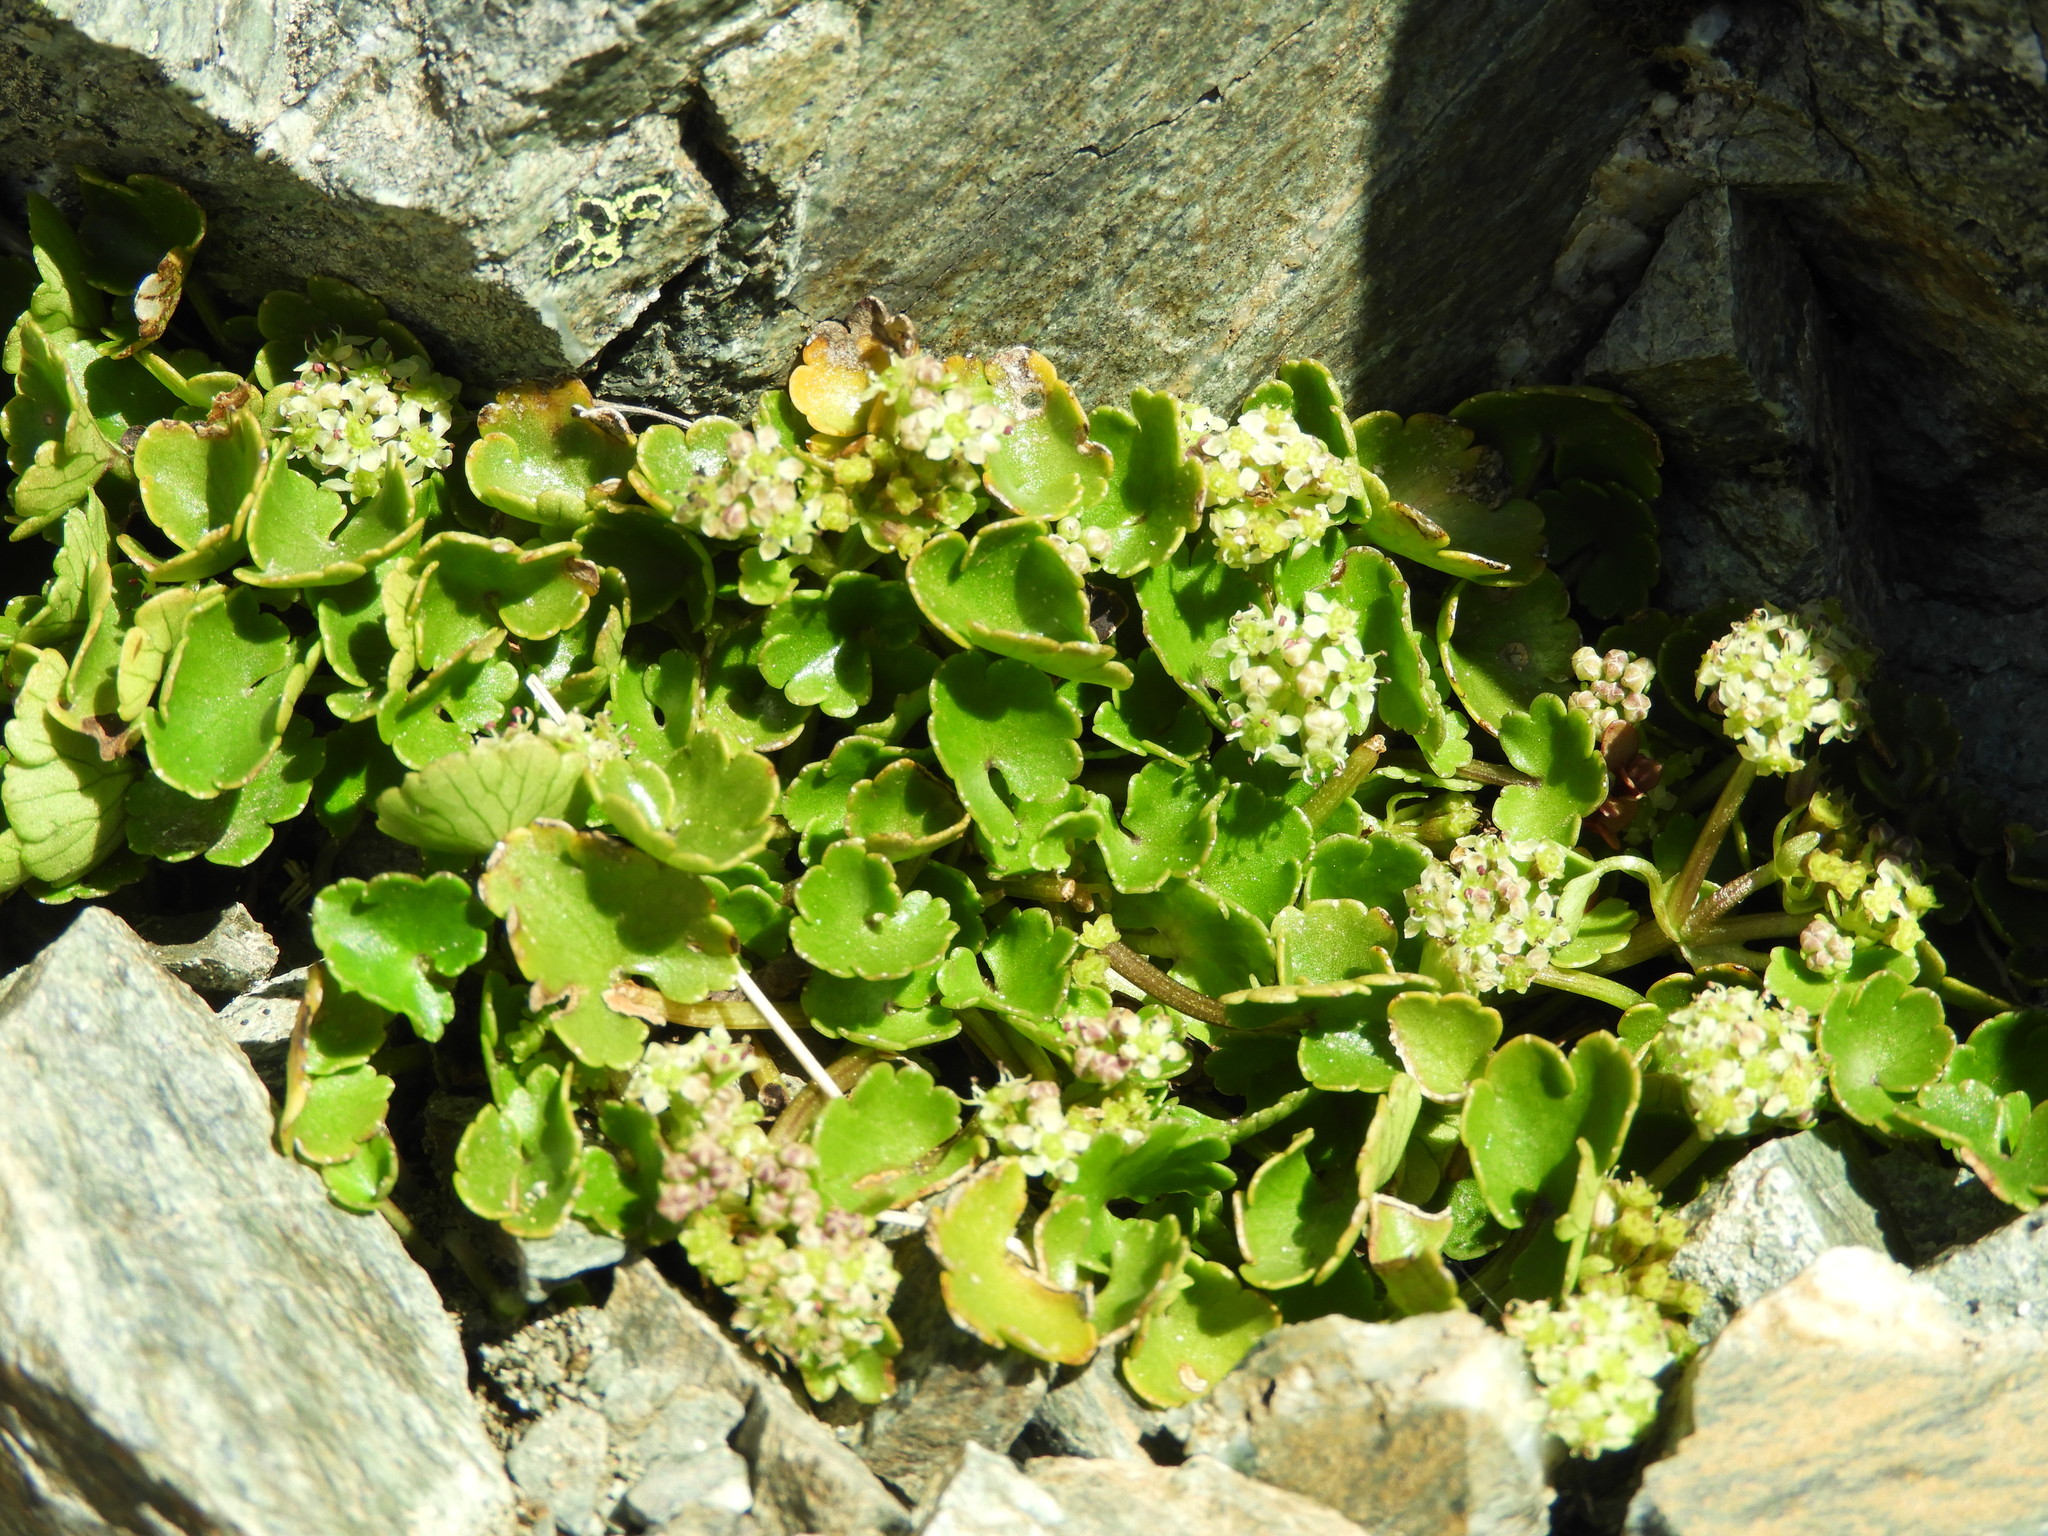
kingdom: Plantae
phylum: Tracheophyta
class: Magnoliopsida
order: Apiales
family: Apiaceae
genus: Azorella
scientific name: Azorella haastii
